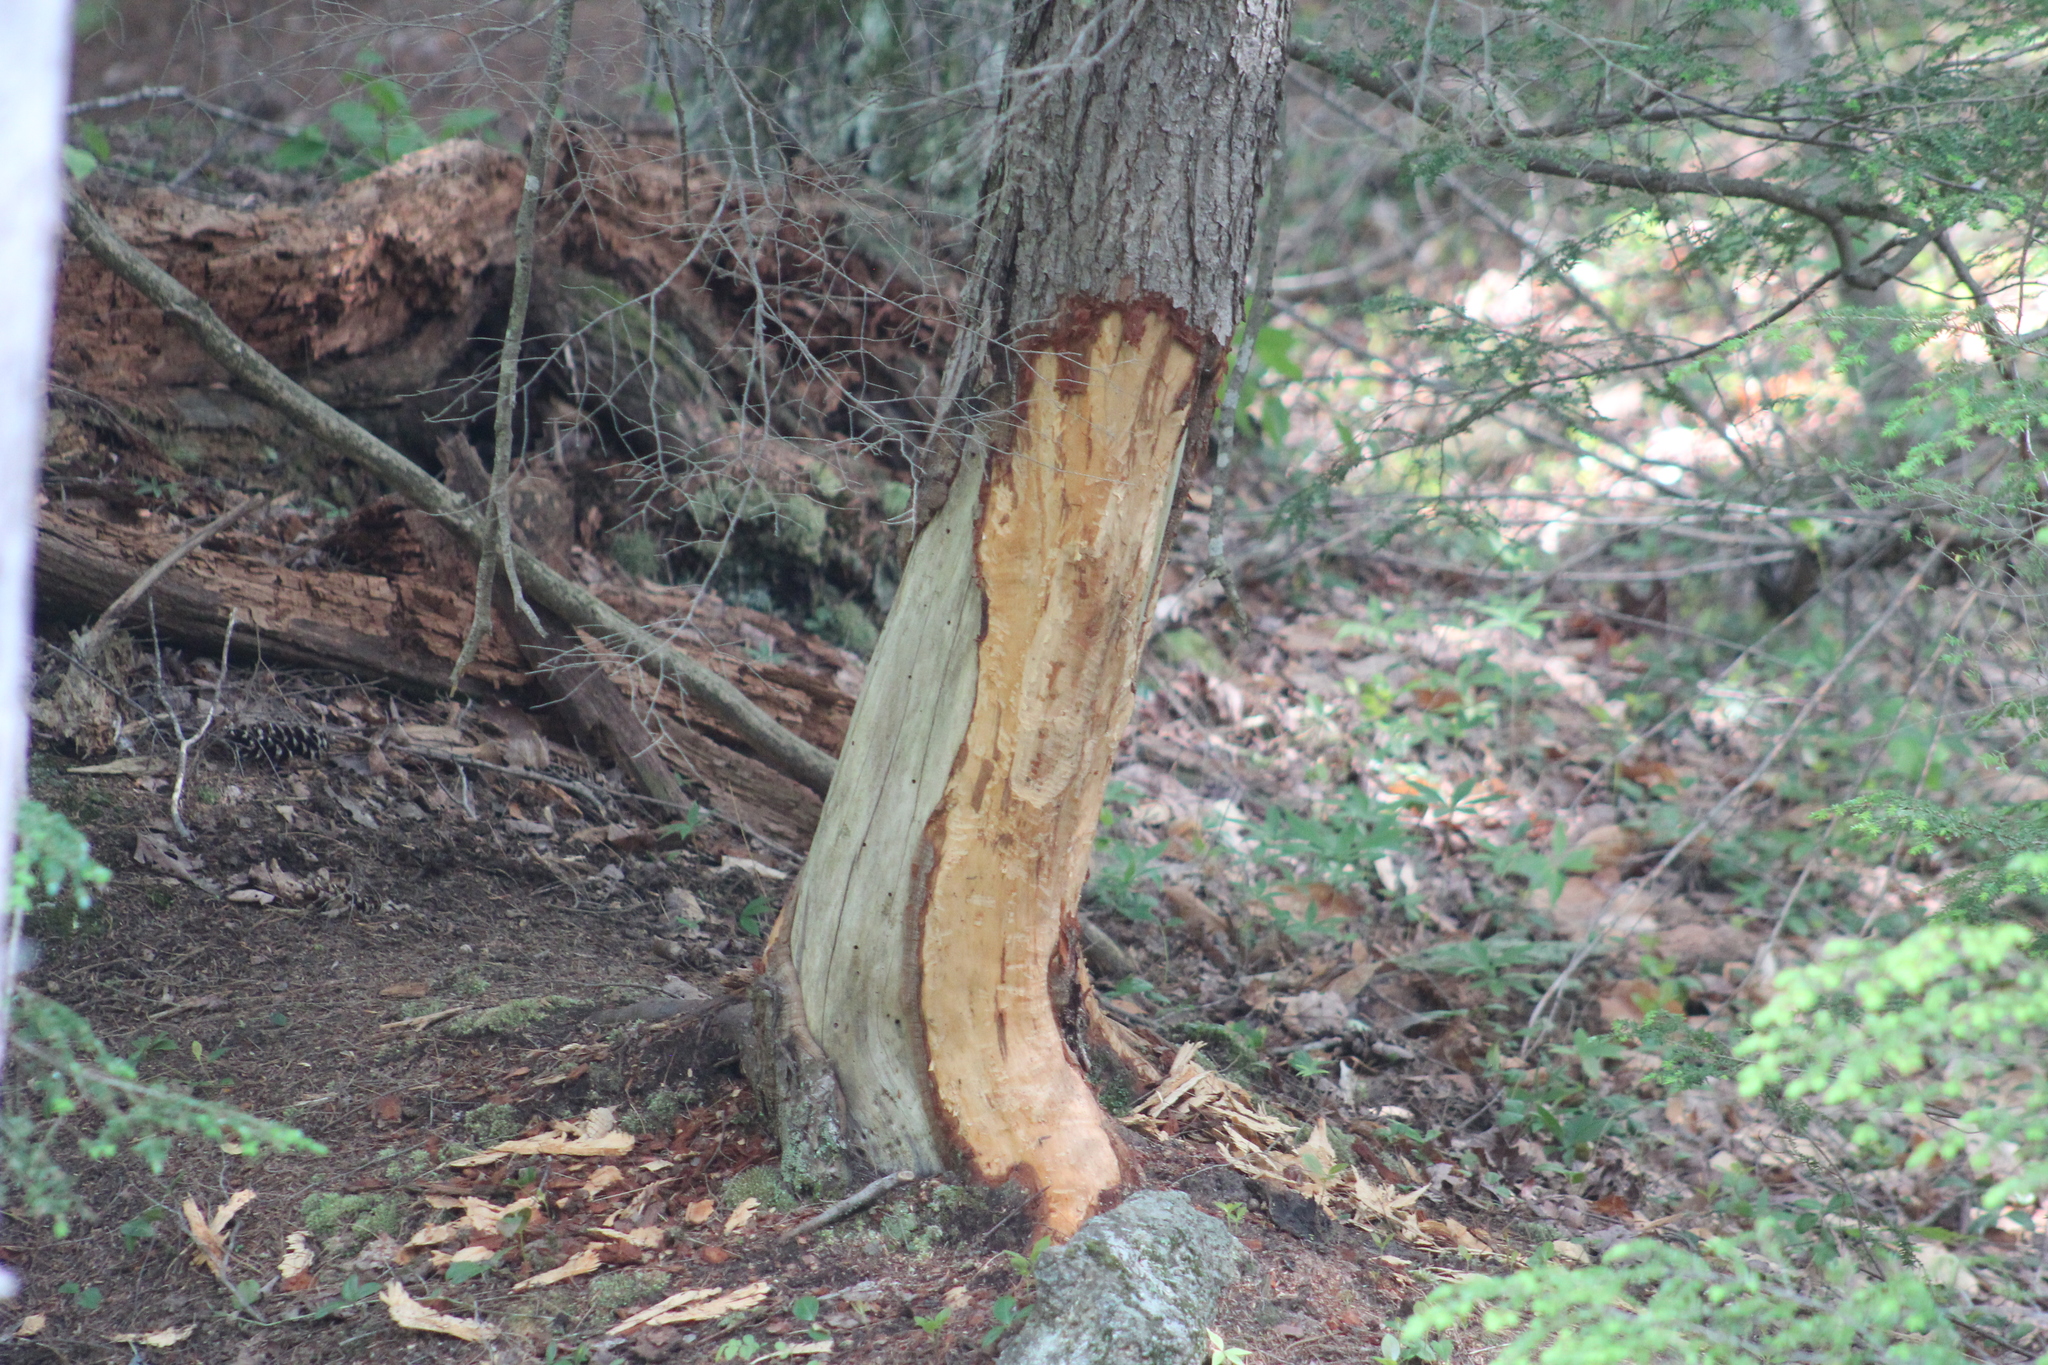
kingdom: Animalia
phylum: Chordata
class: Mammalia
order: Rodentia
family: Castoridae
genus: Castor
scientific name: Castor canadensis
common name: American beaver
